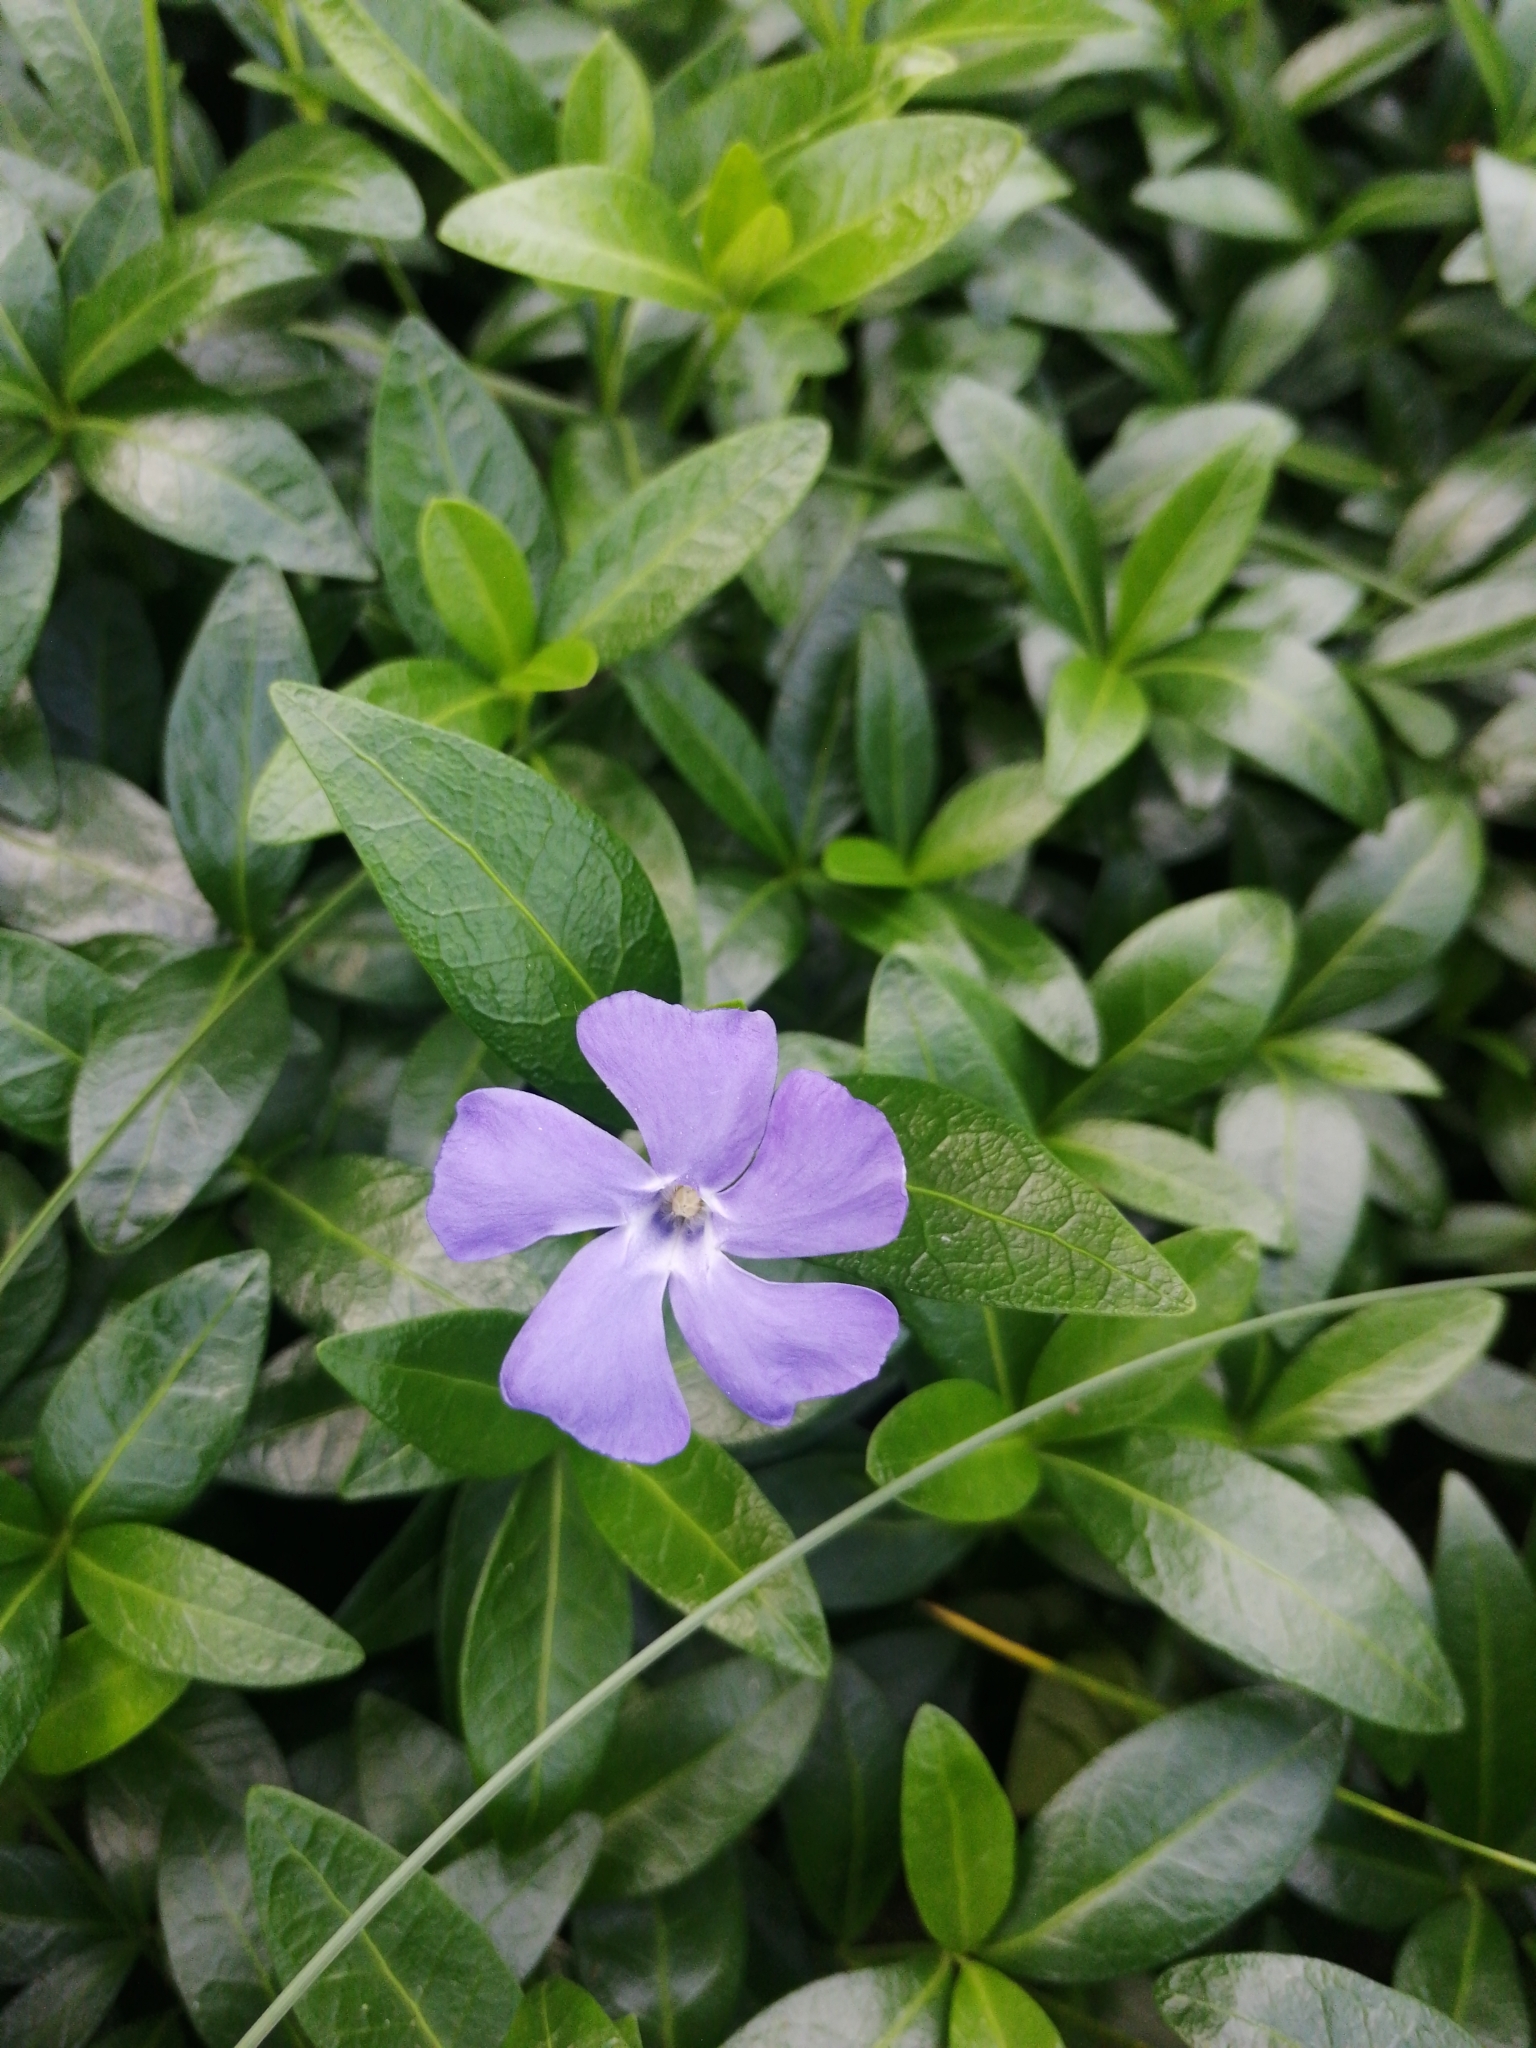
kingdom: Plantae
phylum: Tracheophyta
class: Magnoliopsida
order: Gentianales
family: Apocynaceae
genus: Vinca
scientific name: Vinca minor
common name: Lesser periwinkle
